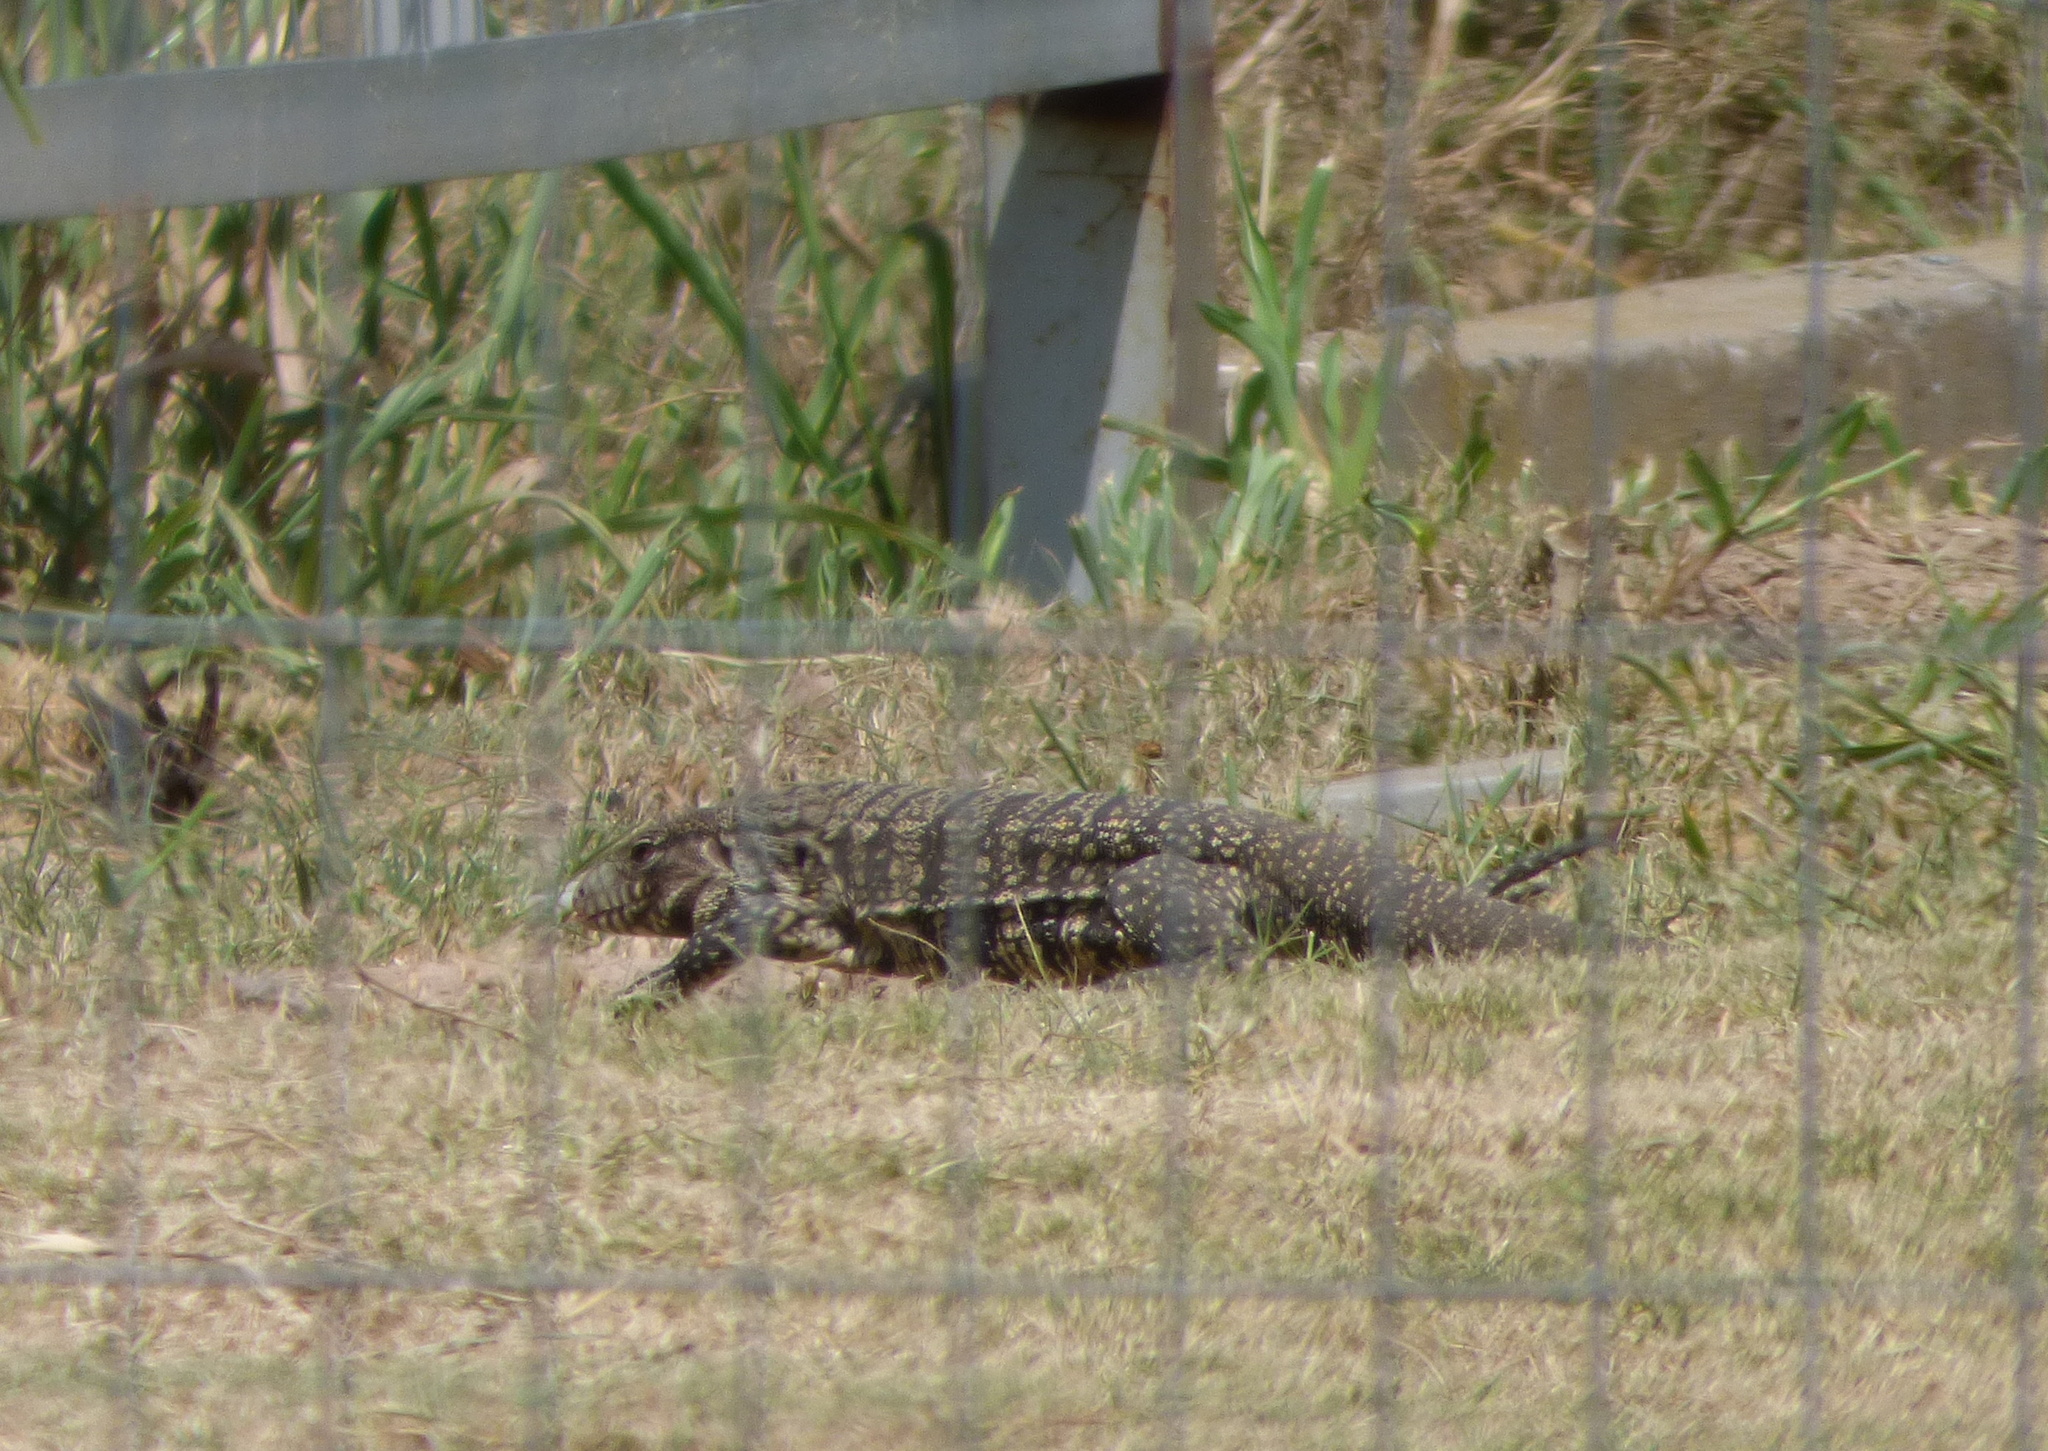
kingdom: Animalia
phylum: Chordata
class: Squamata
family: Teiidae
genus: Salvator
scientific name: Salvator merianae
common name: Argentine black and white tegu
